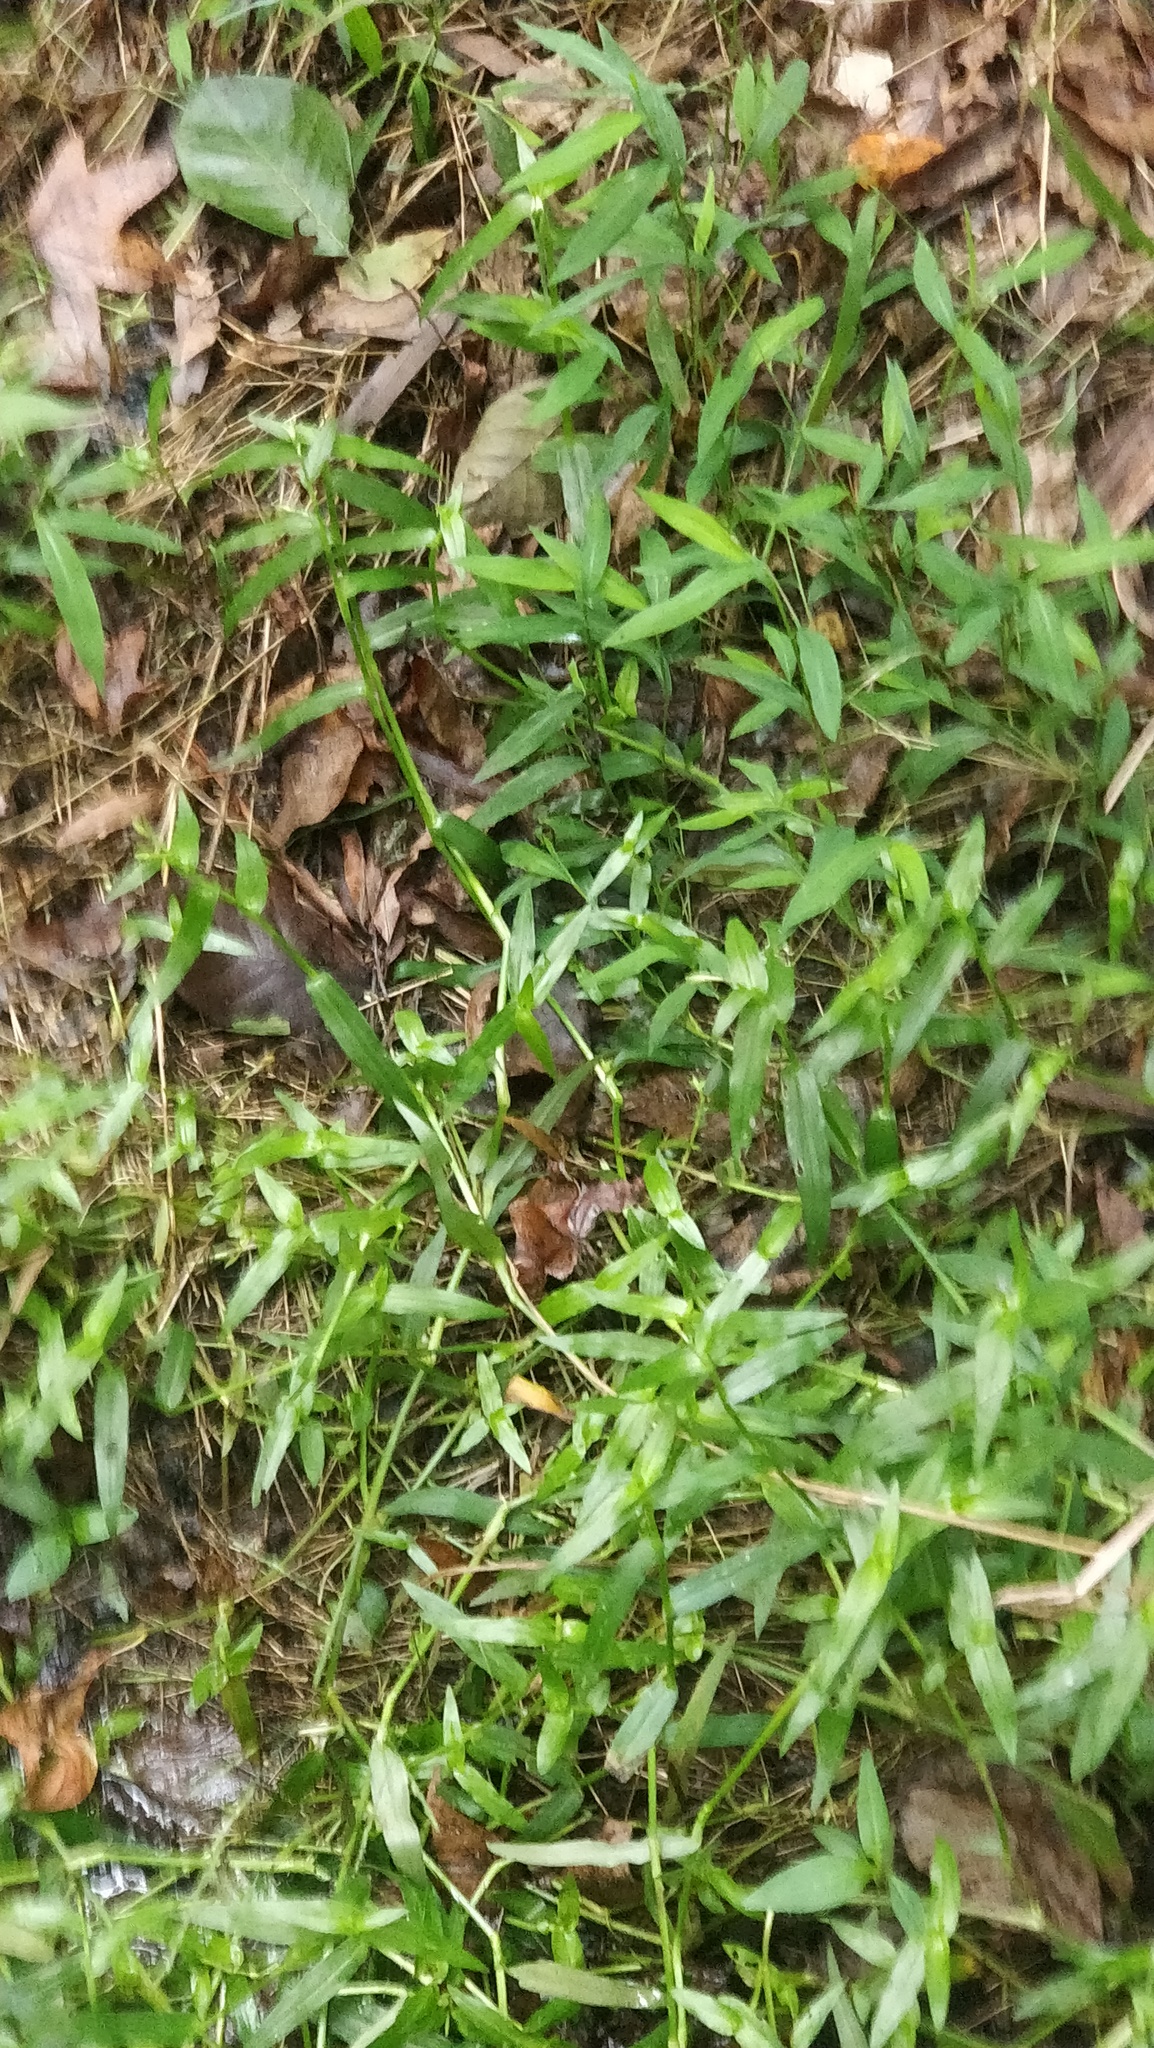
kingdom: Plantae
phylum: Tracheophyta
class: Liliopsida
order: Poales
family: Poaceae
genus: Microstegium
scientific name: Microstegium vimineum
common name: Japanese stiltgrass
